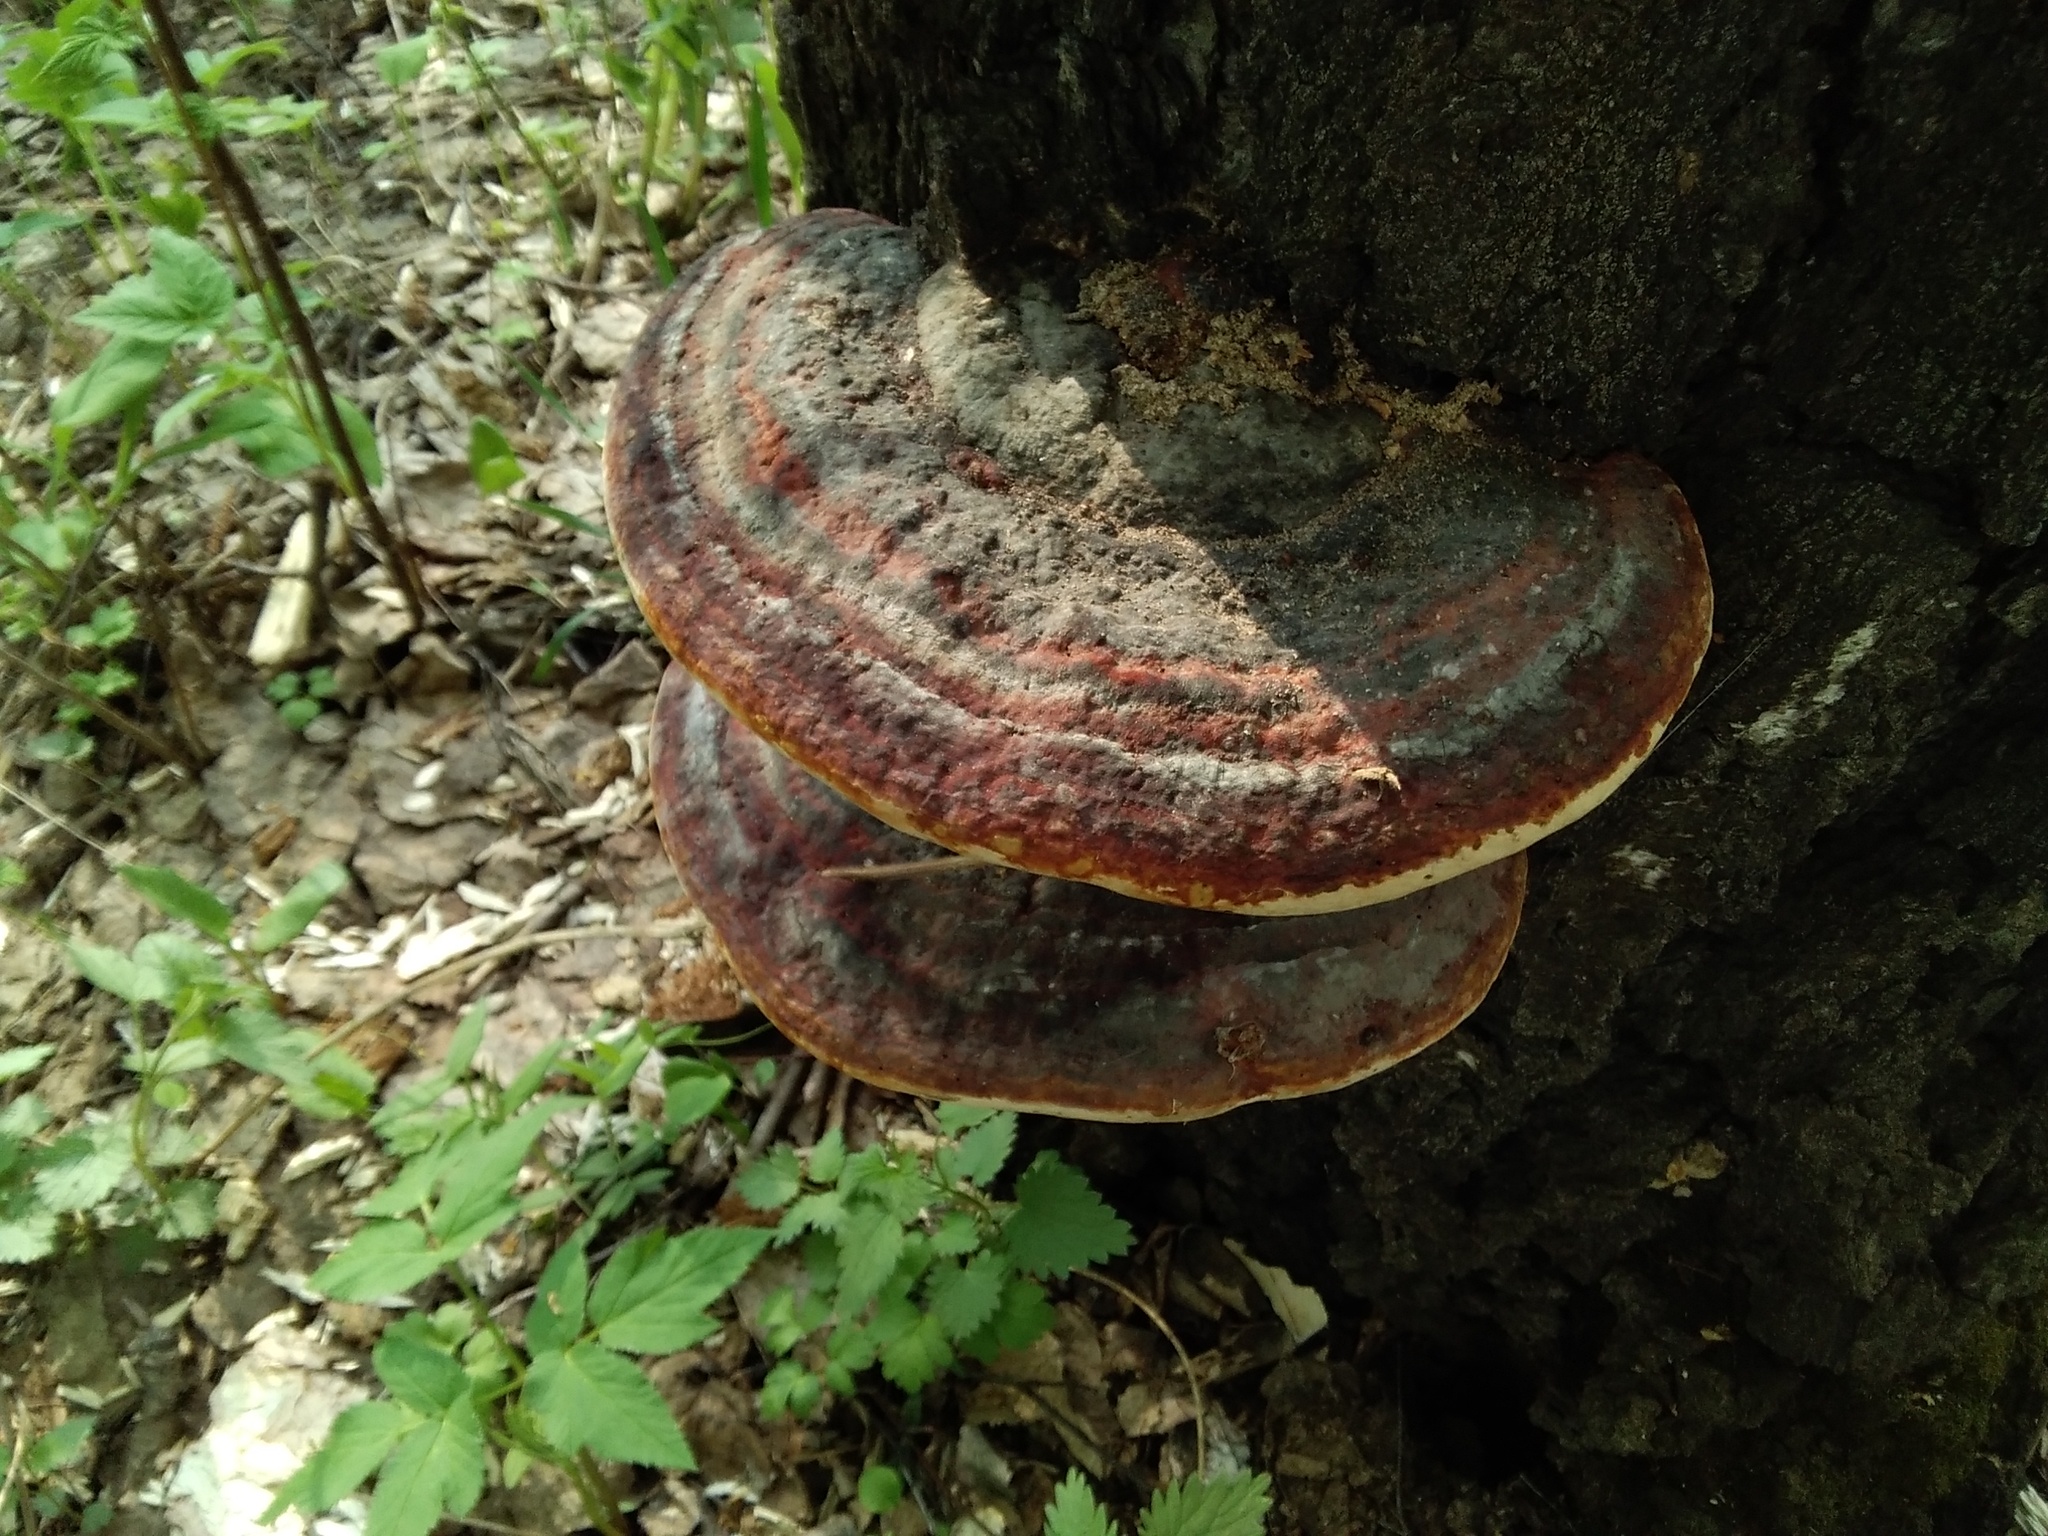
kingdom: Fungi
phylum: Basidiomycota
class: Agaricomycetes
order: Polyporales
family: Fomitopsidaceae
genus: Fomitopsis
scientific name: Fomitopsis pinicola
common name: Red-belted bracket
